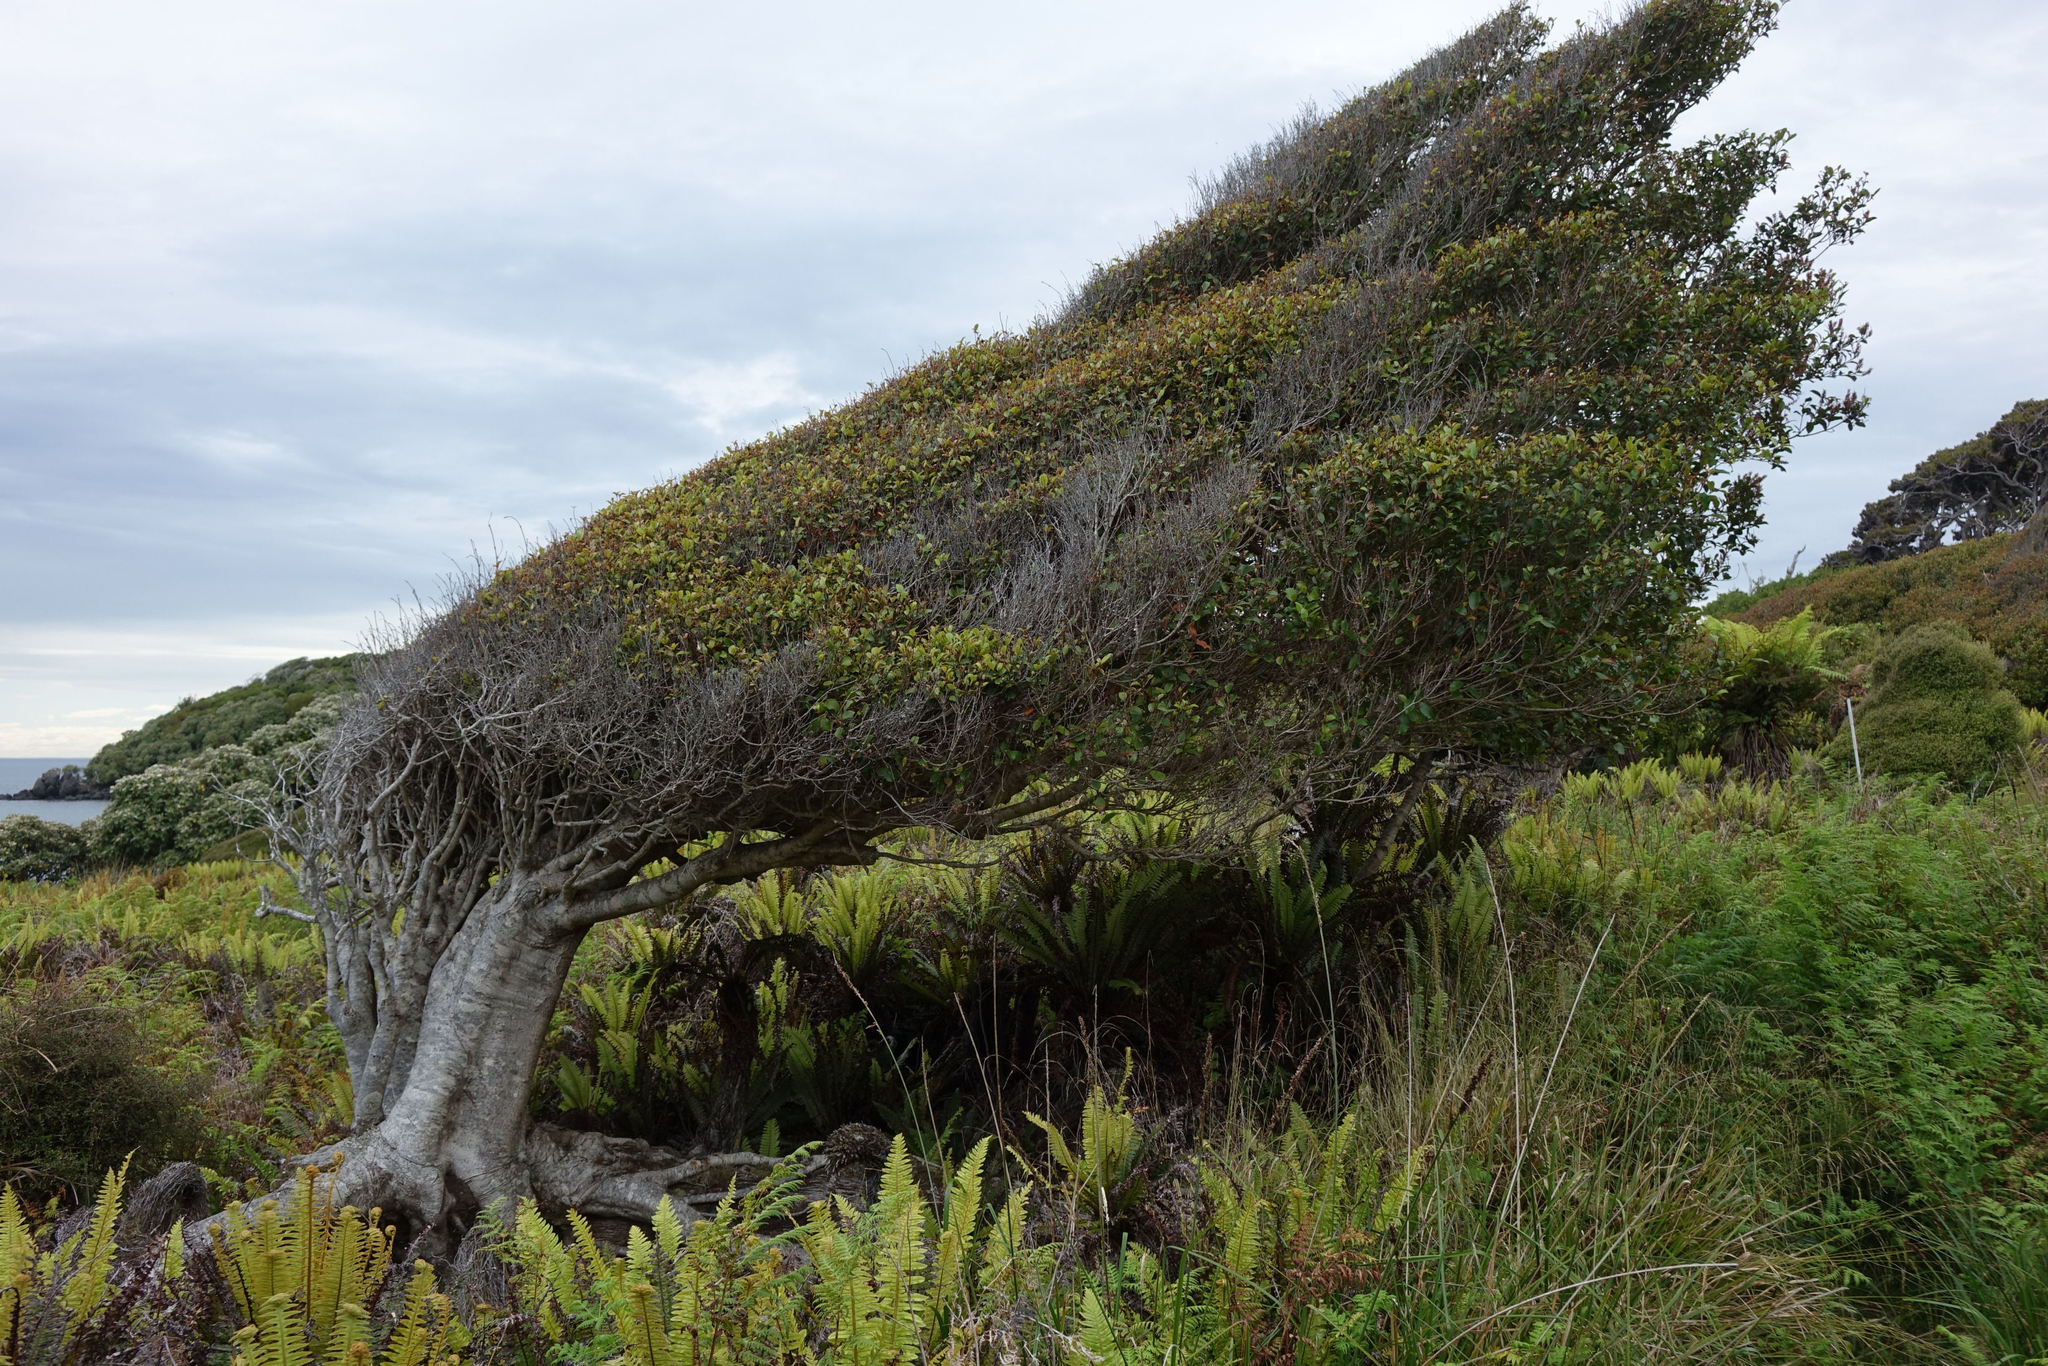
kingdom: Plantae
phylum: Tracheophyta
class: Magnoliopsida
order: Oxalidales
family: Cunoniaceae
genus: Pterophylla
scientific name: Pterophylla racemosa
